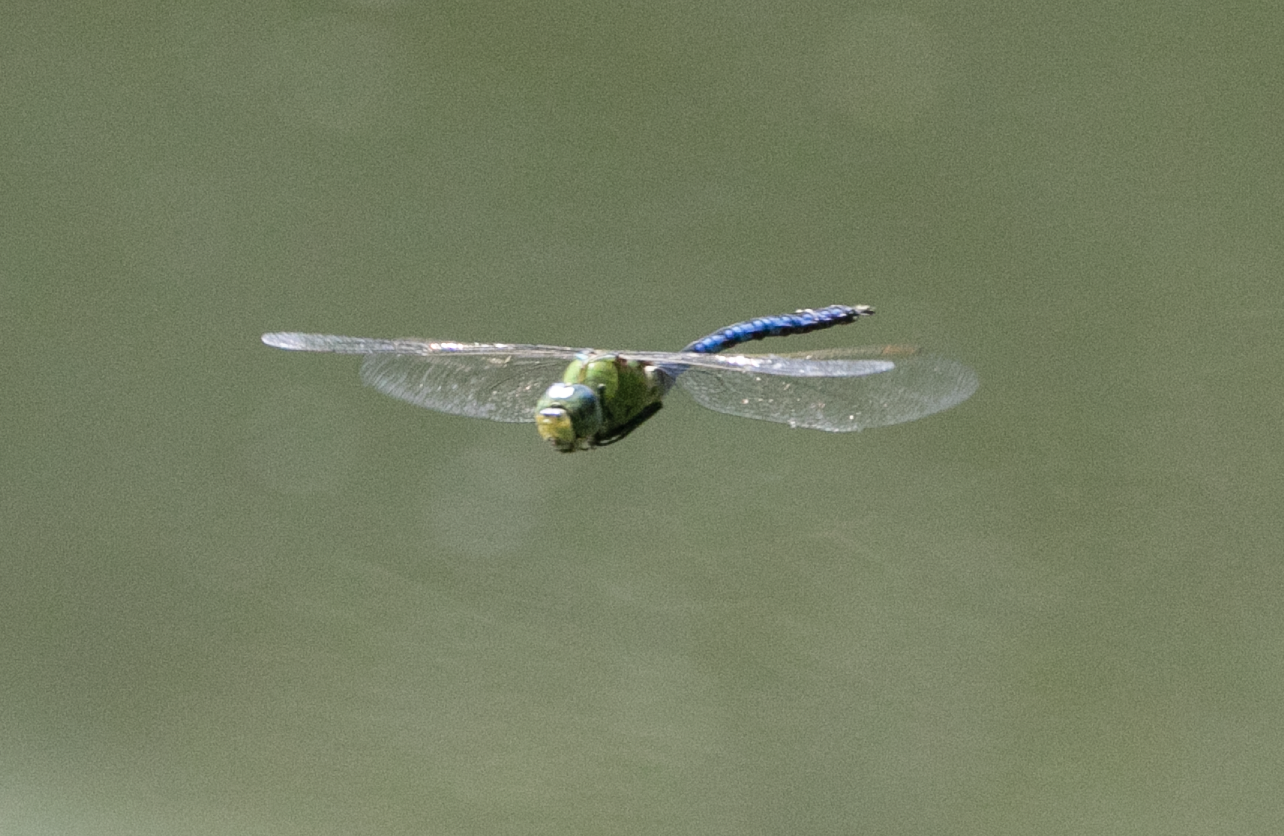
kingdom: Animalia
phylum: Arthropoda
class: Insecta
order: Odonata
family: Aeshnidae
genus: Anax
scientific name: Anax imperator
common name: Emperor dragonfly
